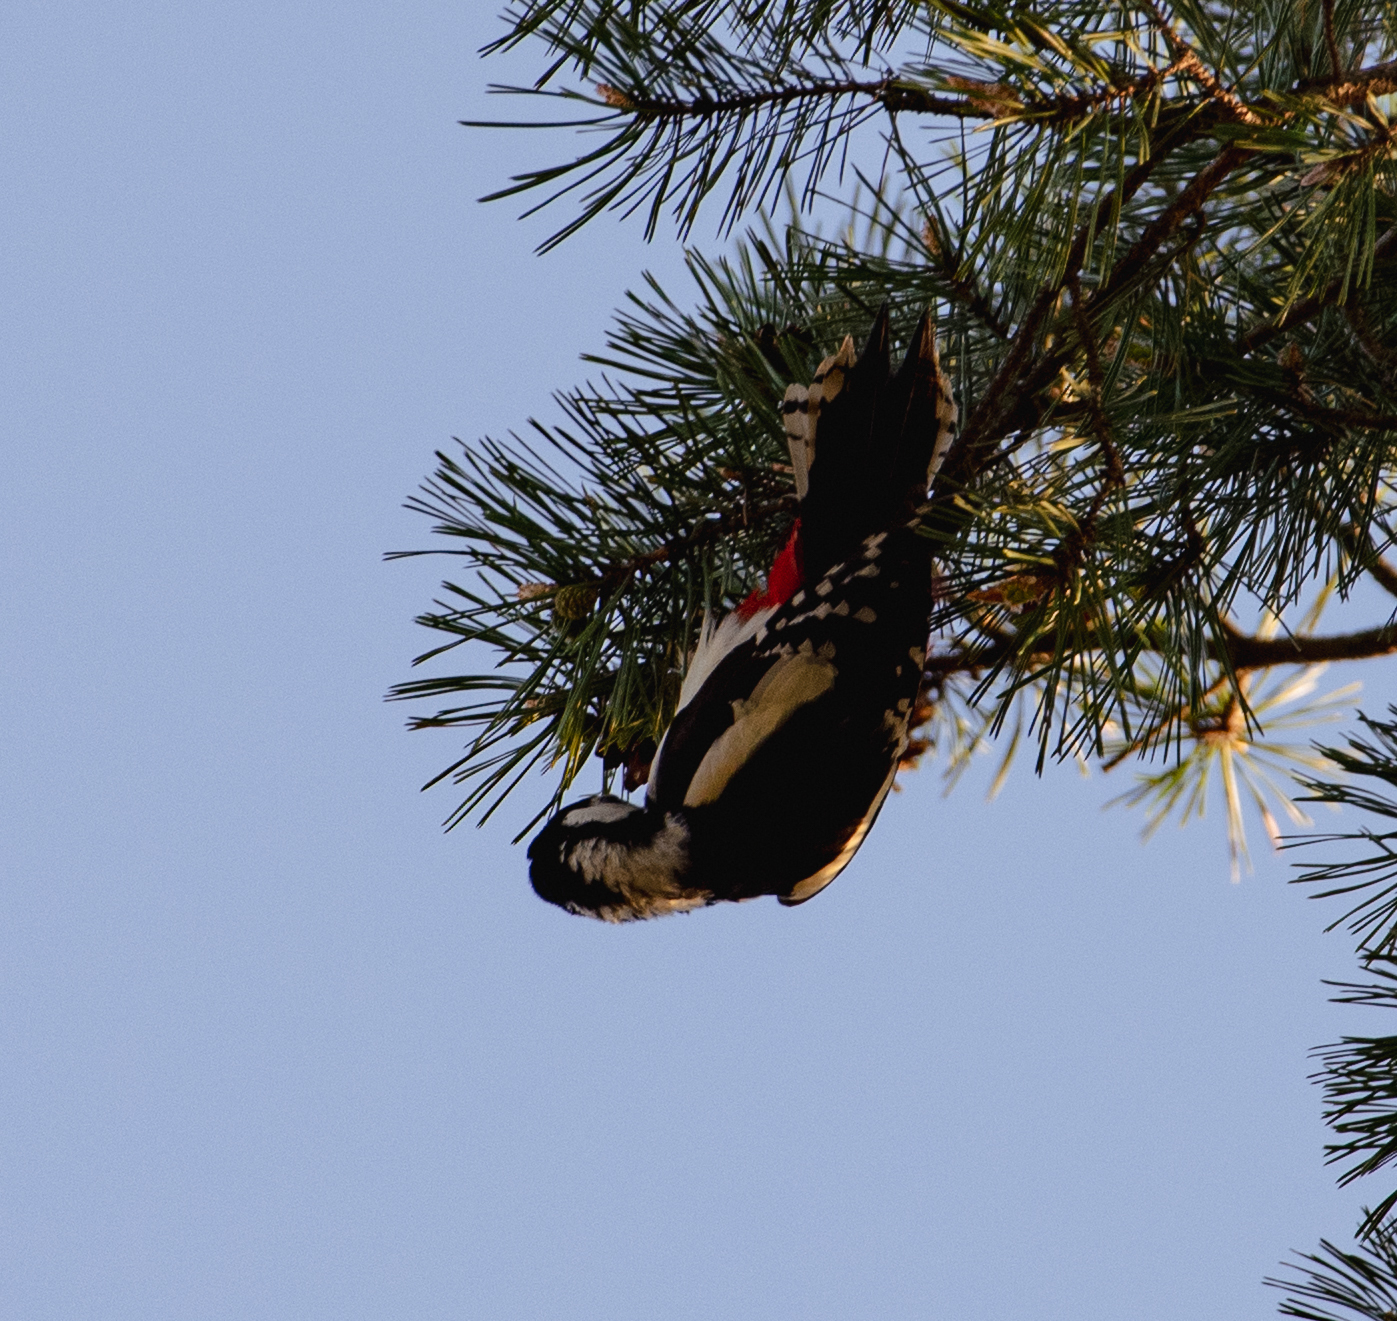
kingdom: Animalia
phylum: Chordata
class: Aves
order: Piciformes
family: Picidae
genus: Dendrocopos
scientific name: Dendrocopos major
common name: Great spotted woodpecker
